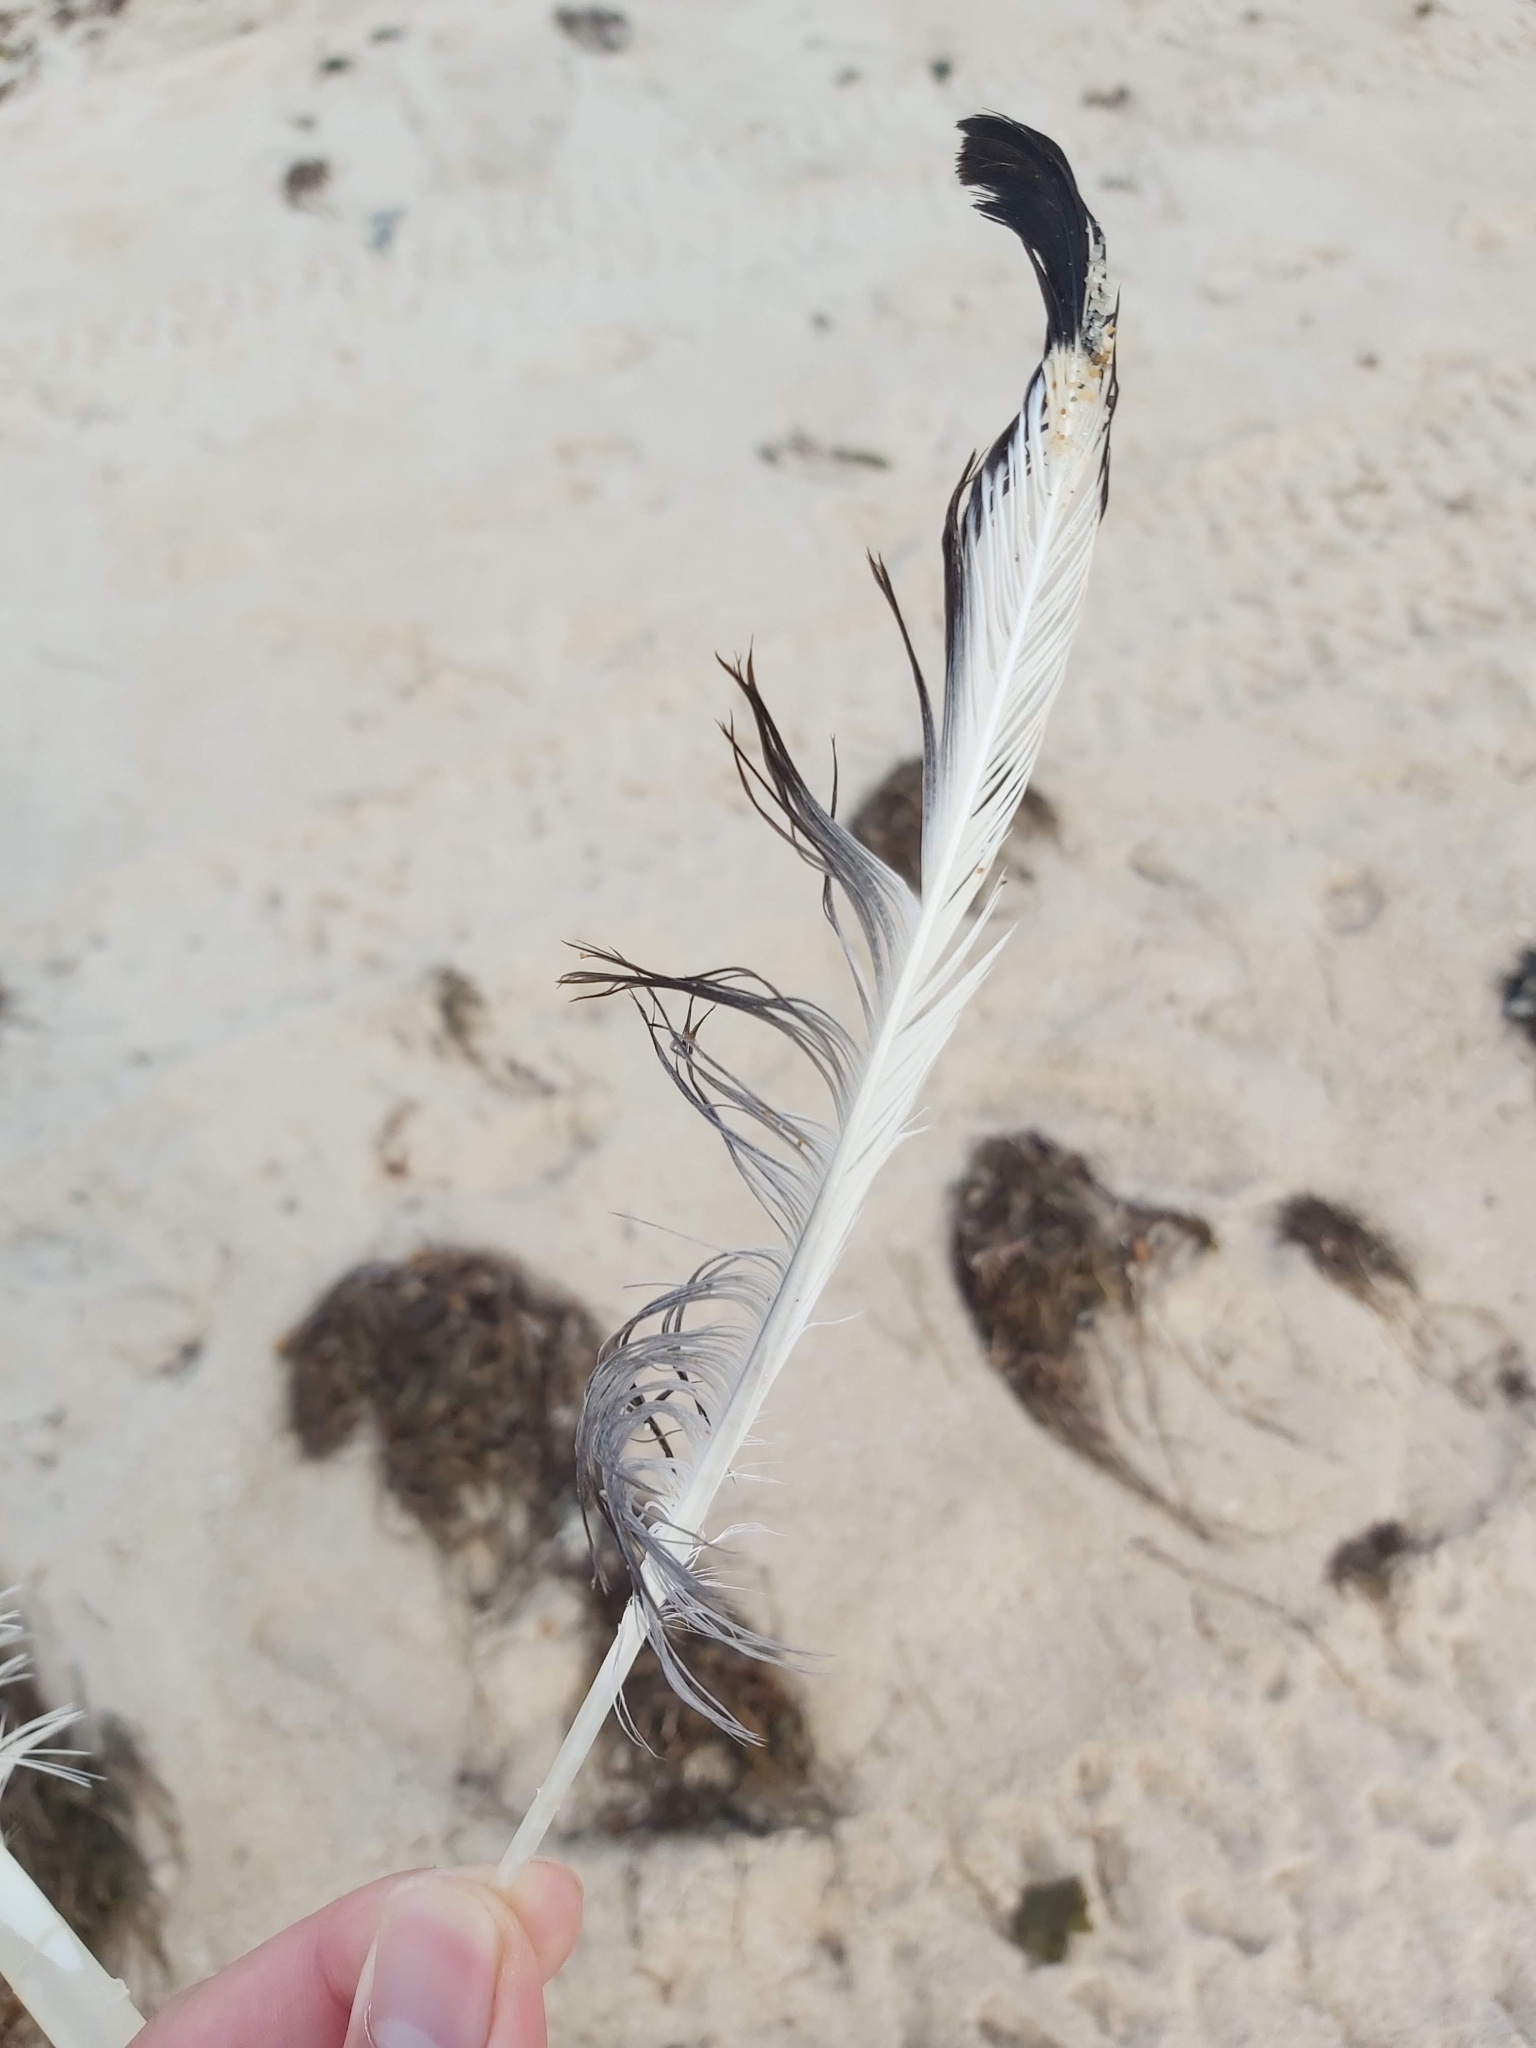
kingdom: Animalia
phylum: Chordata
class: Aves
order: Charadriiformes
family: Laridae
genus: Chroicocephalus
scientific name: Chroicocephalus novaehollandiae
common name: Silver gull
